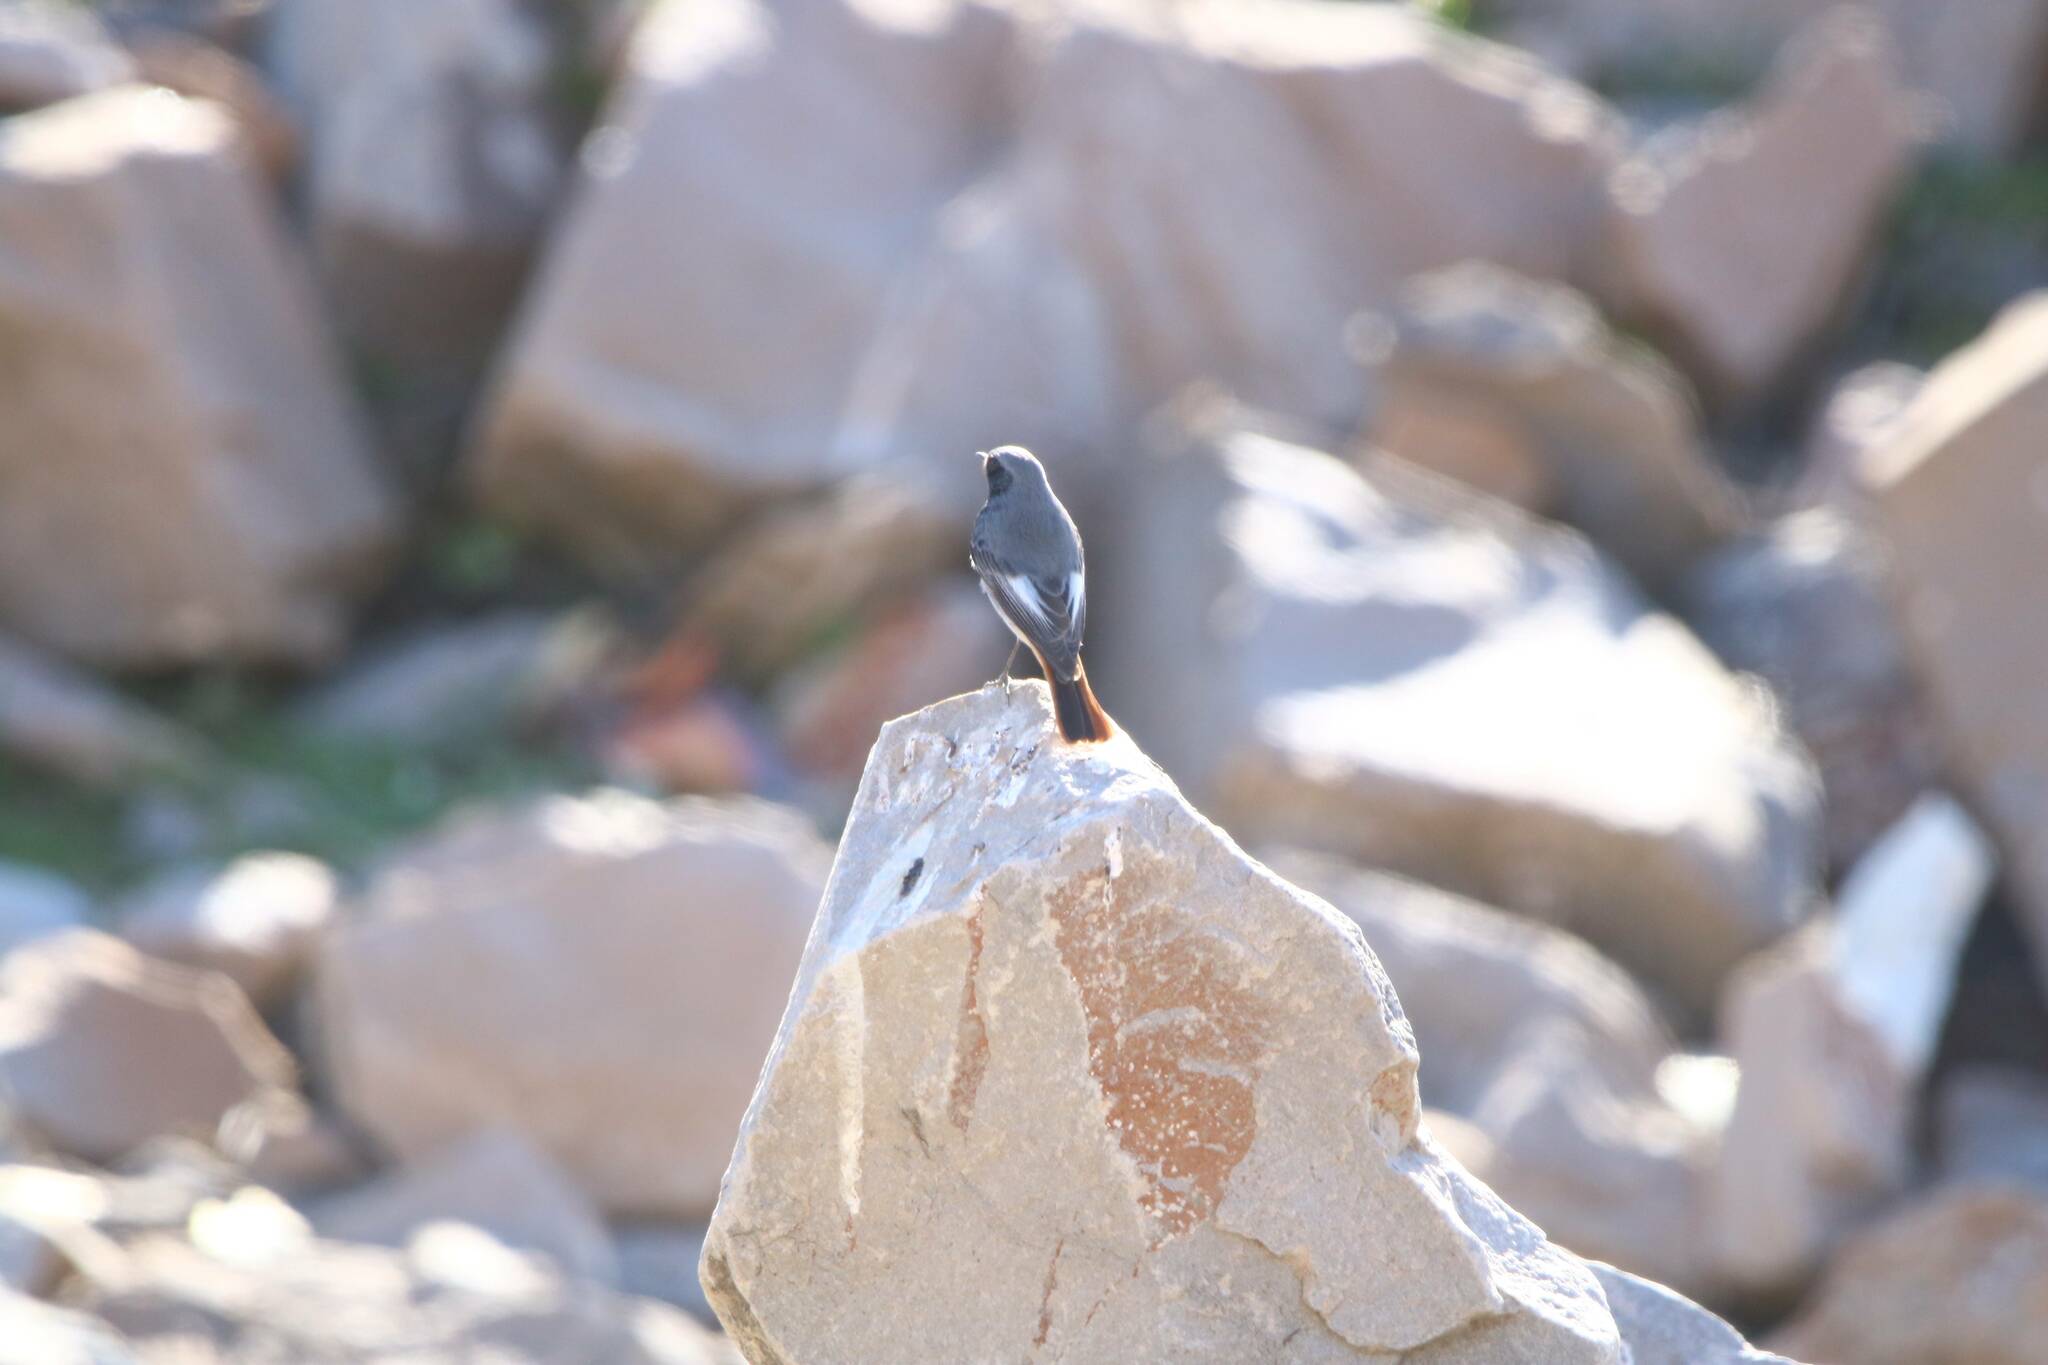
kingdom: Animalia
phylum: Chordata
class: Aves
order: Passeriformes
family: Muscicapidae
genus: Phoenicurus
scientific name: Phoenicurus ochruros
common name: Black redstart
